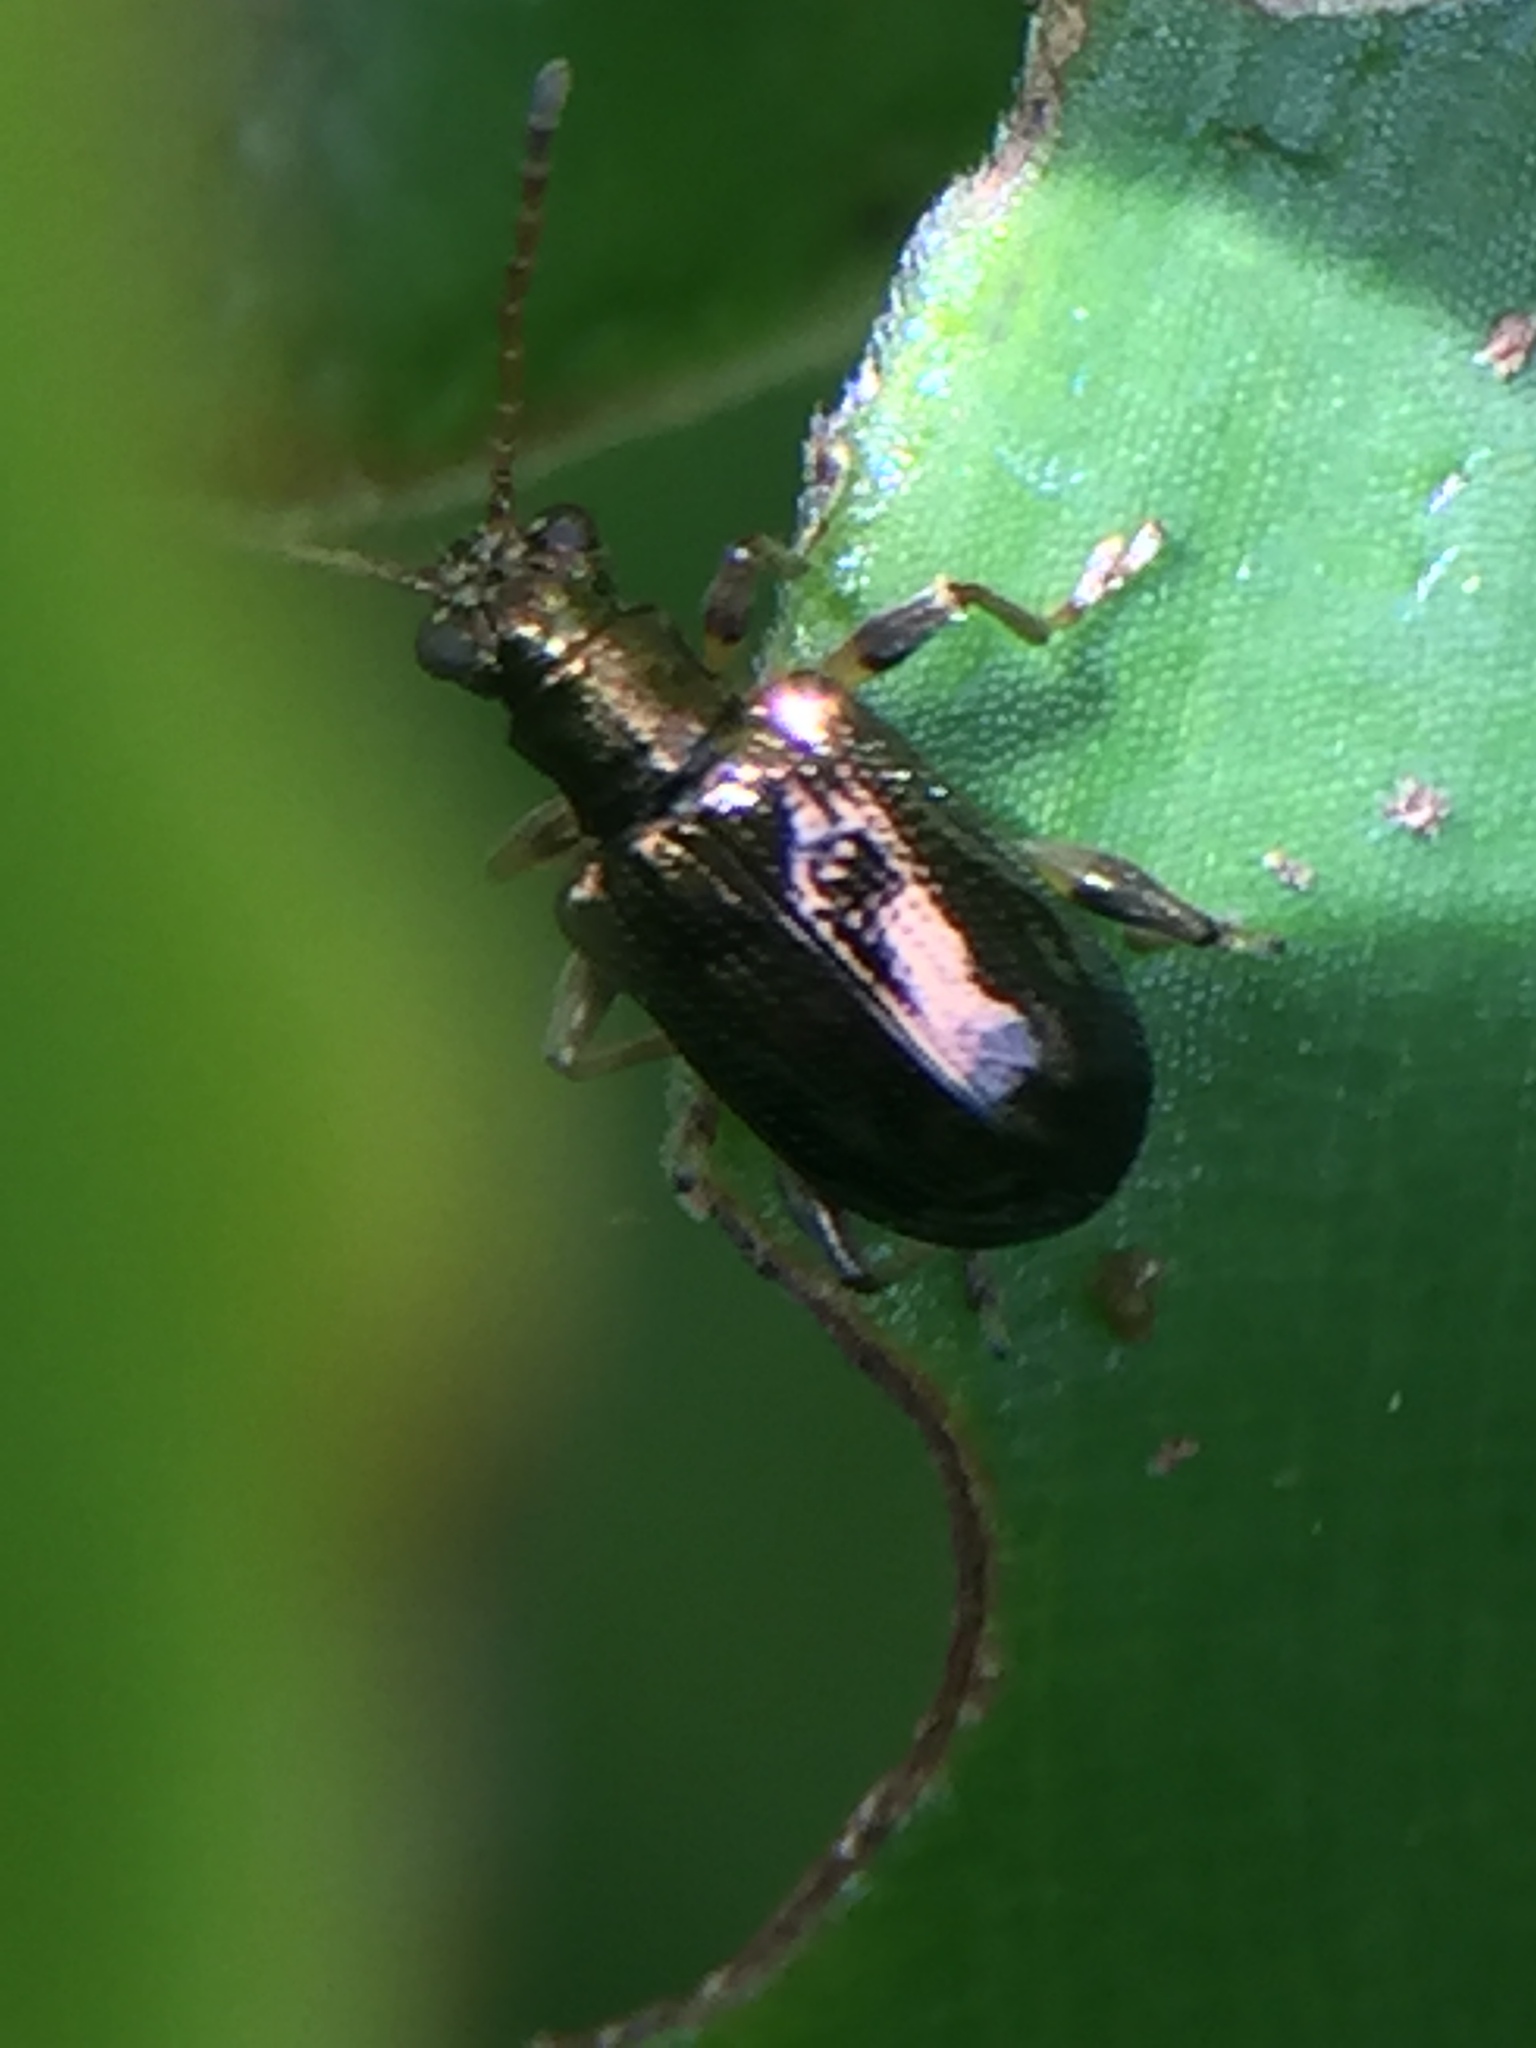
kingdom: Animalia
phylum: Arthropoda
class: Insecta
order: Coleoptera
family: Chrysomelidae
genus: Neolema
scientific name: Neolema ogloblini
